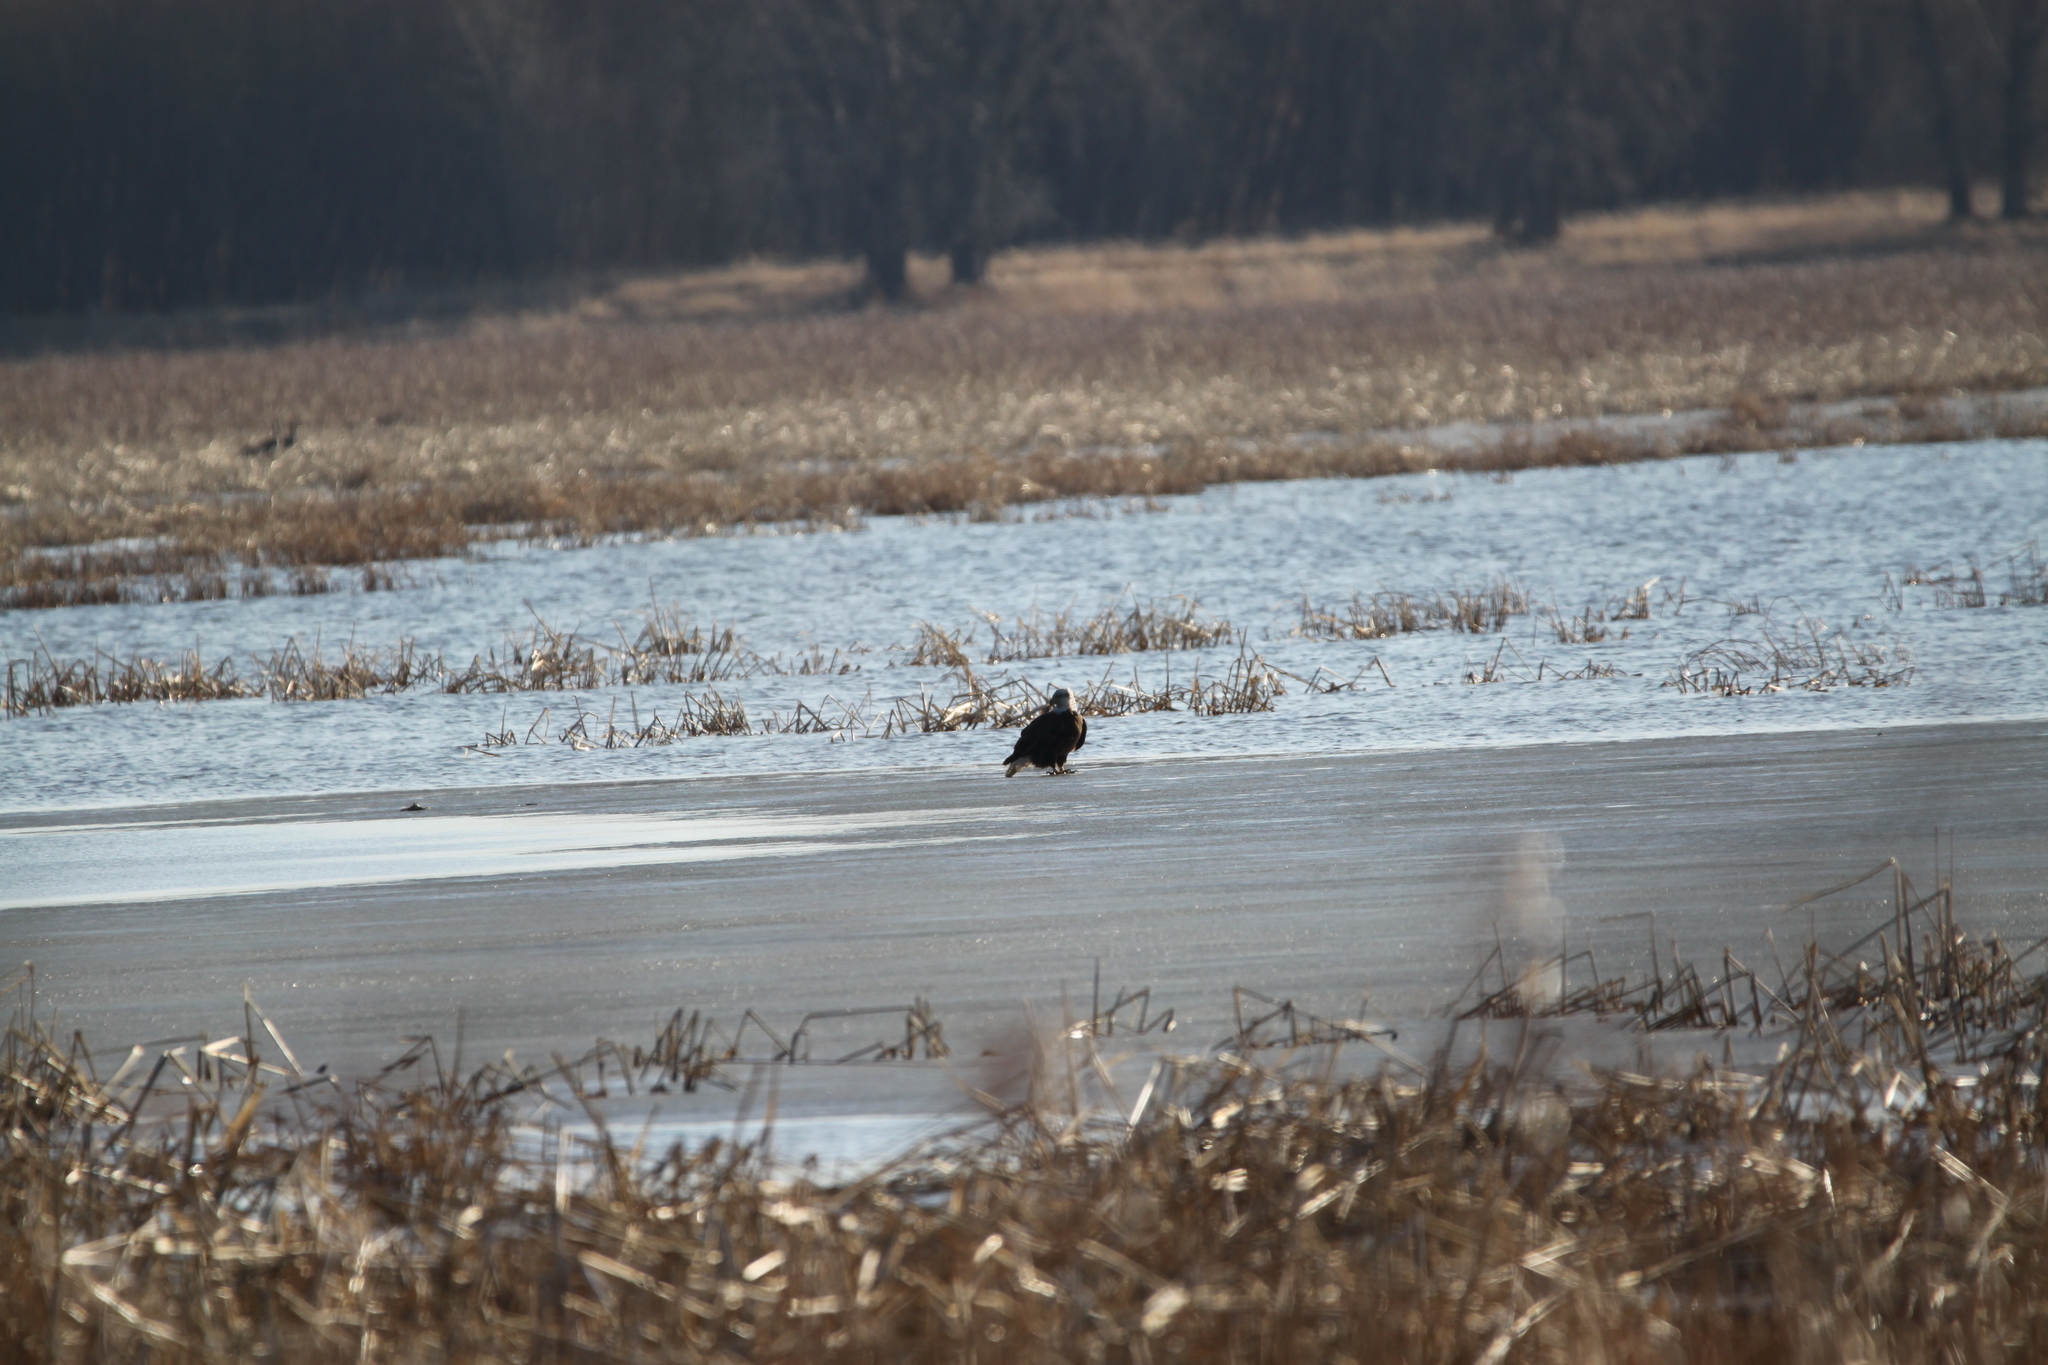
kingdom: Animalia
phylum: Chordata
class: Aves
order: Accipitriformes
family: Accipitridae
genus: Haliaeetus
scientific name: Haliaeetus leucocephalus
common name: Bald eagle
